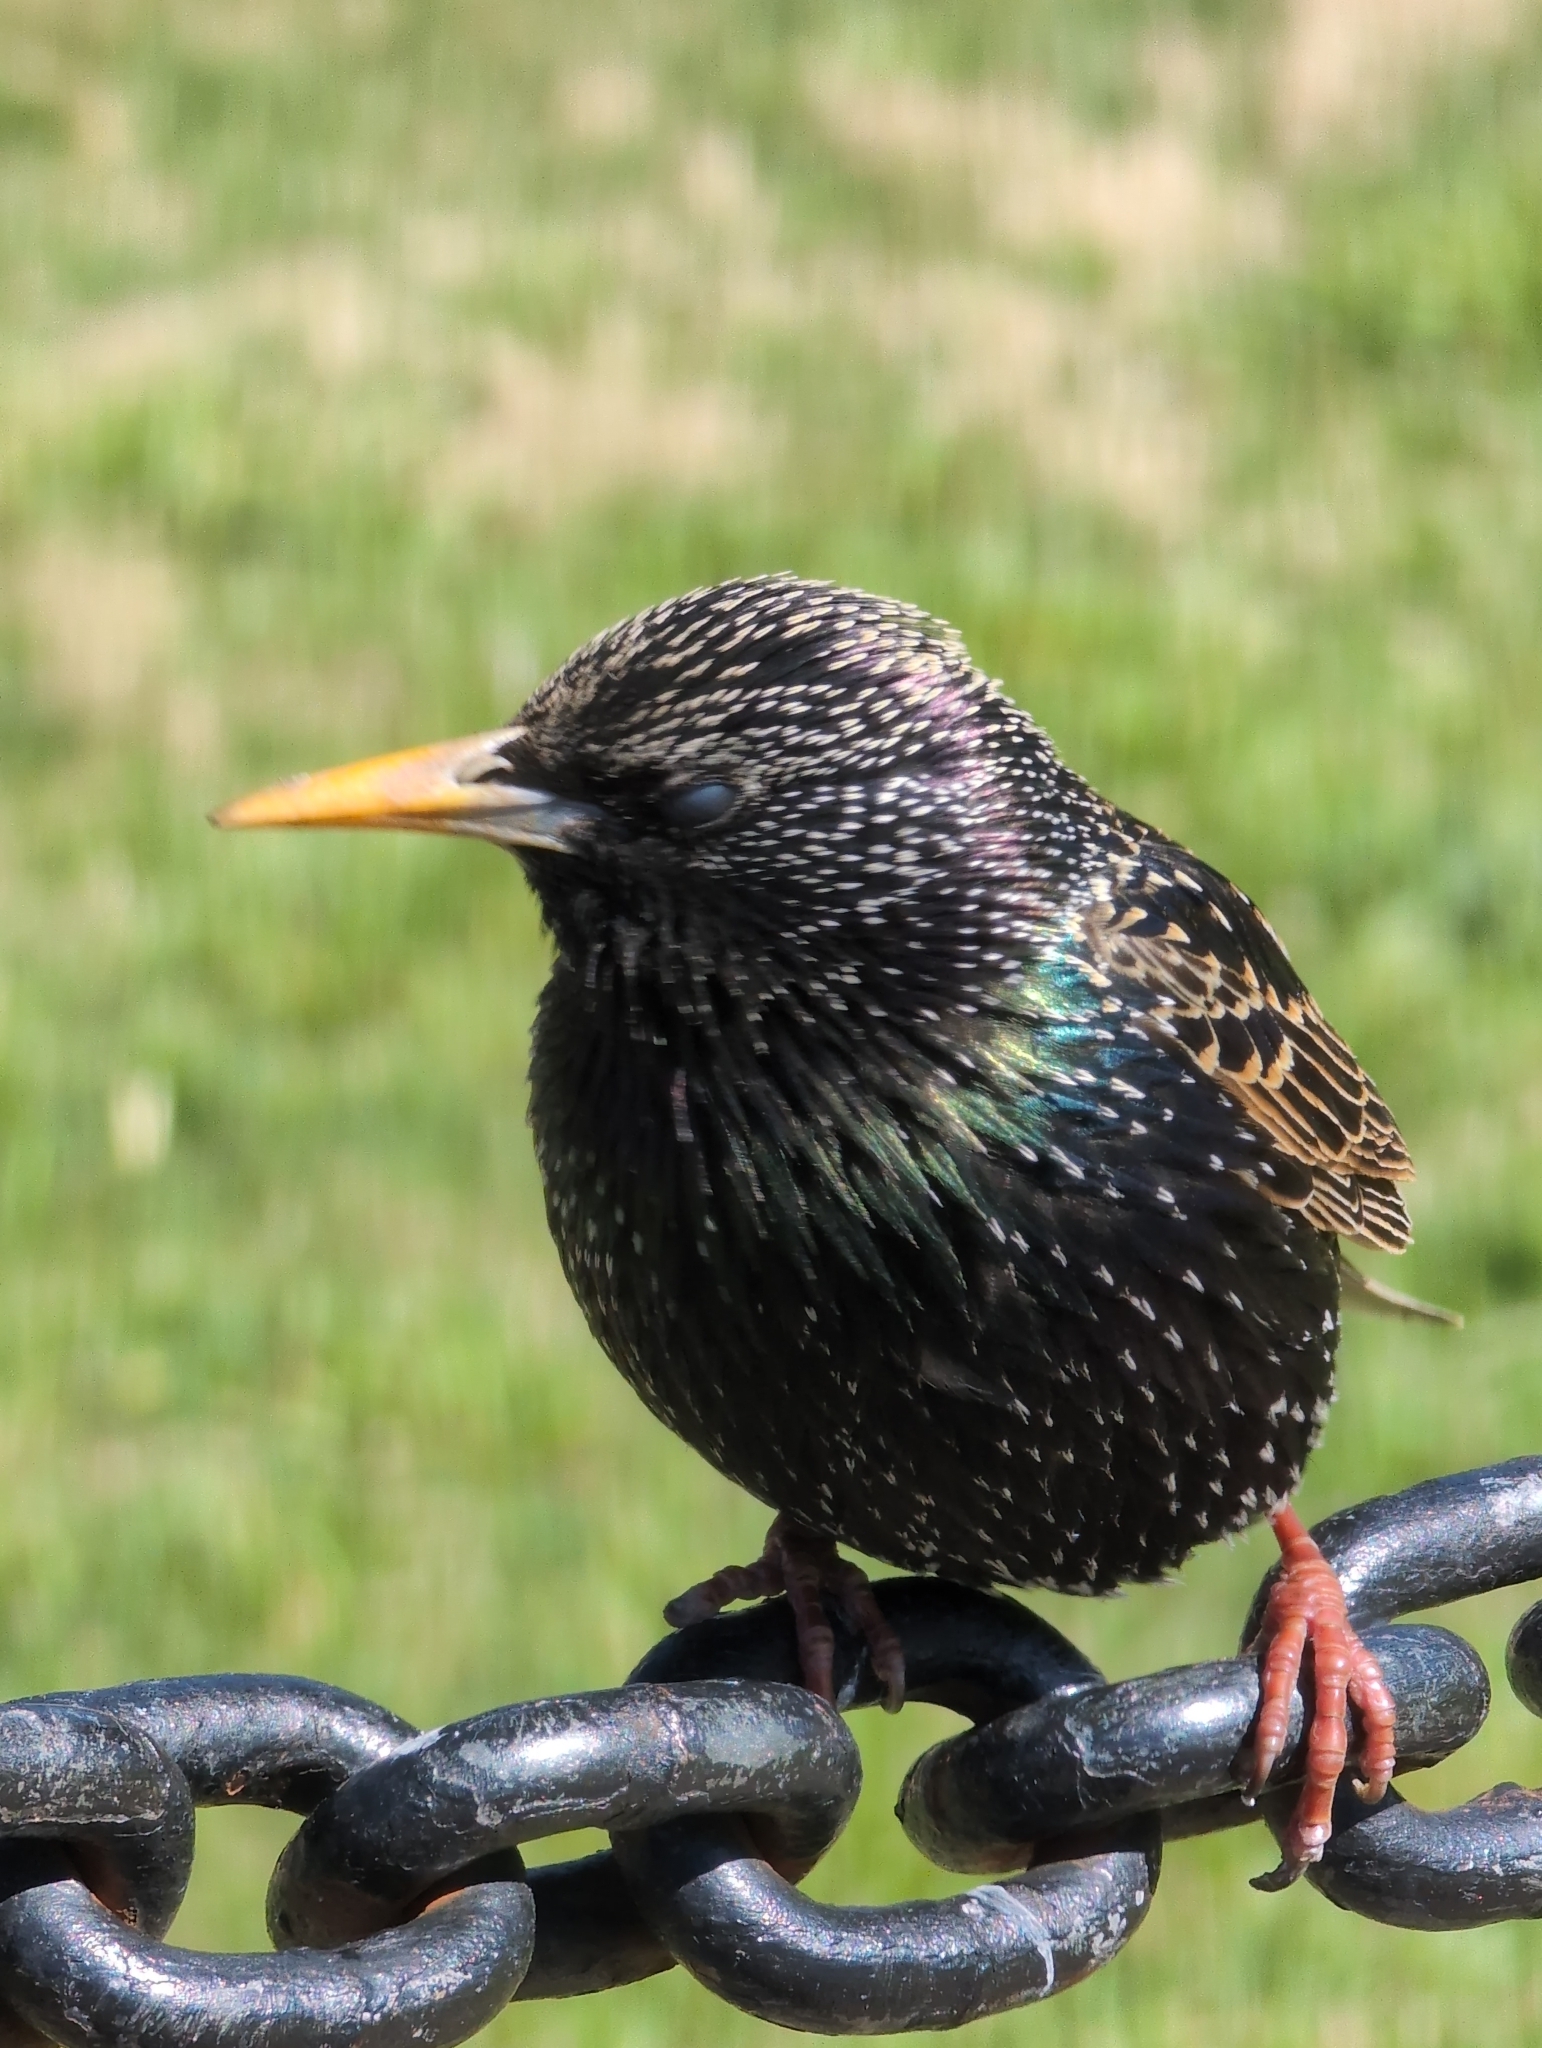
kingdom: Animalia
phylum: Chordata
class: Aves
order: Passeriformes
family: Sturnidae
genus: Sturnus
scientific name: Sturnus vulgaris
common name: Common starling
